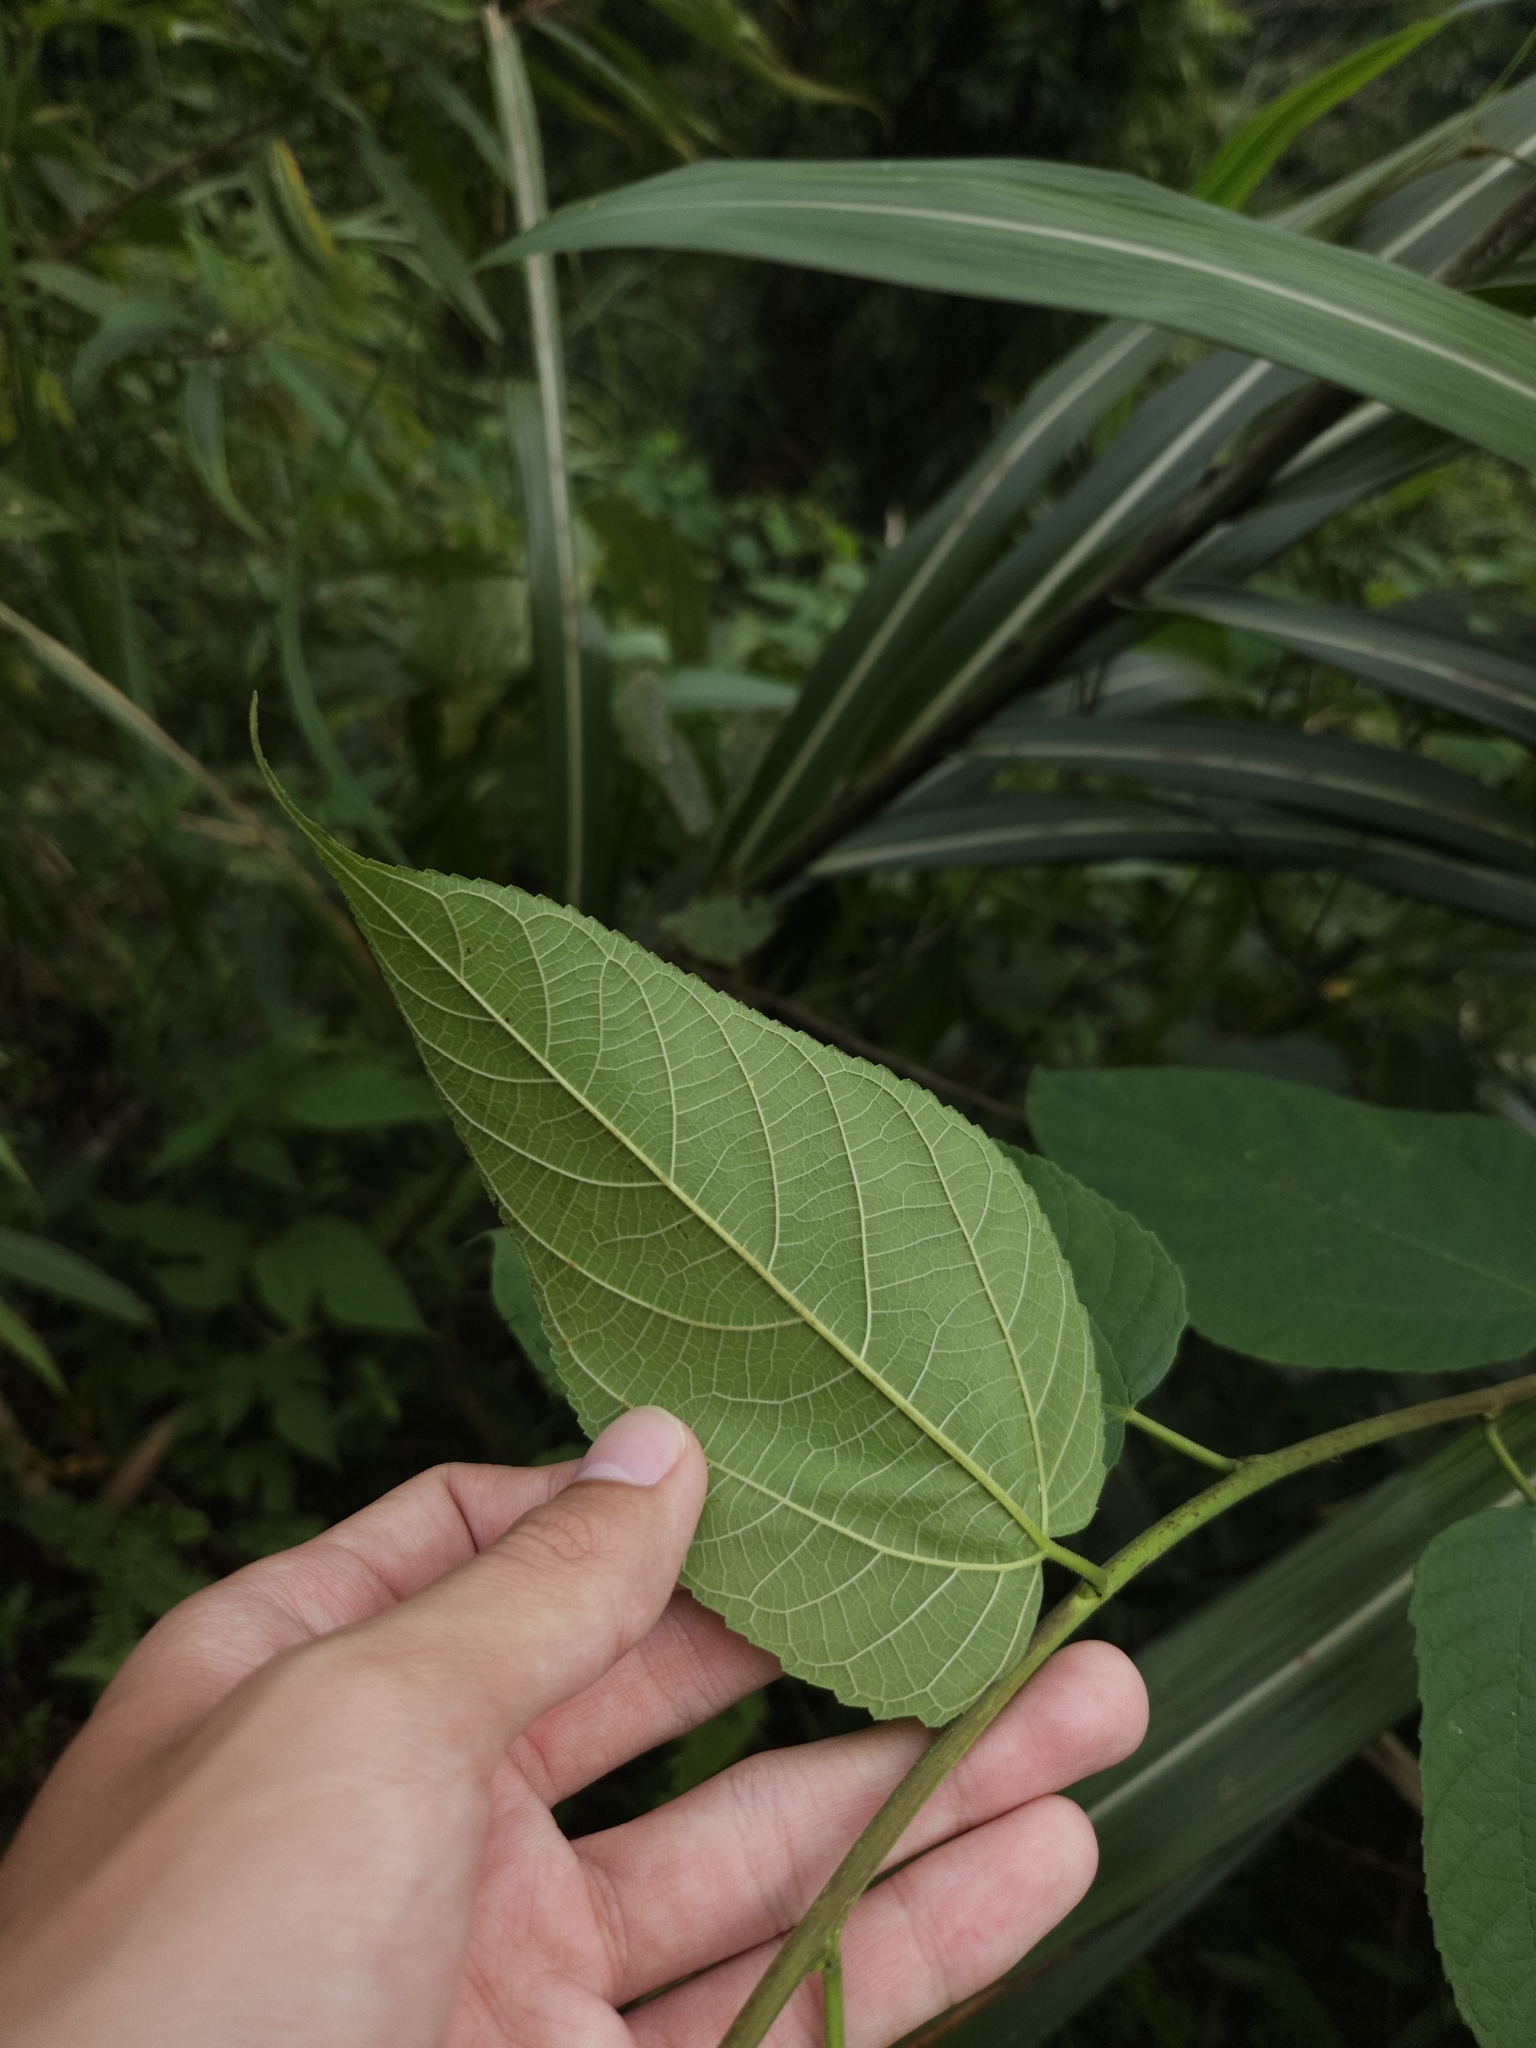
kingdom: Plantae
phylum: Tracheophyta
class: Magnoliopsida
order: Rosales
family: Moraceae
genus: Broussonetia
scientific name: Broussonetia monoica
